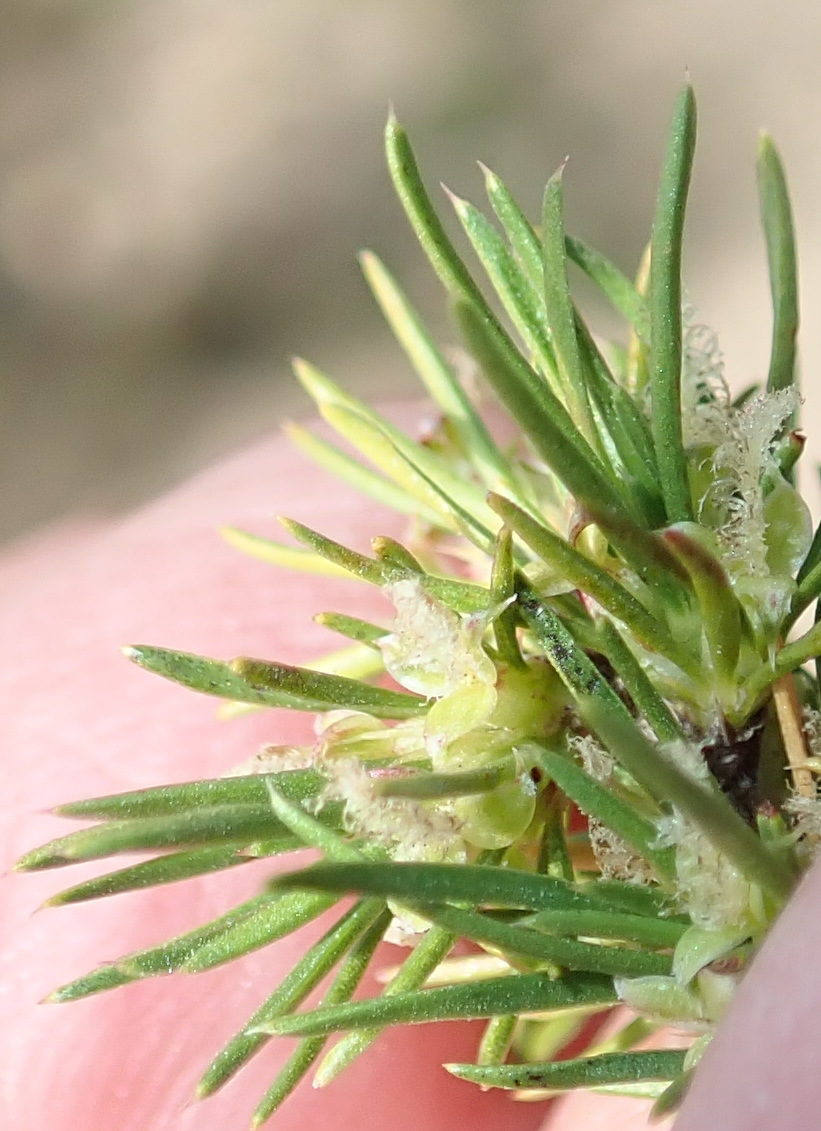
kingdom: Plantae
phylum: Tracheophyta
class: Magnoliopsida
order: Rosales
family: Rosaceae
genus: Cliffortia
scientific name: Cliffortia tuberculata
